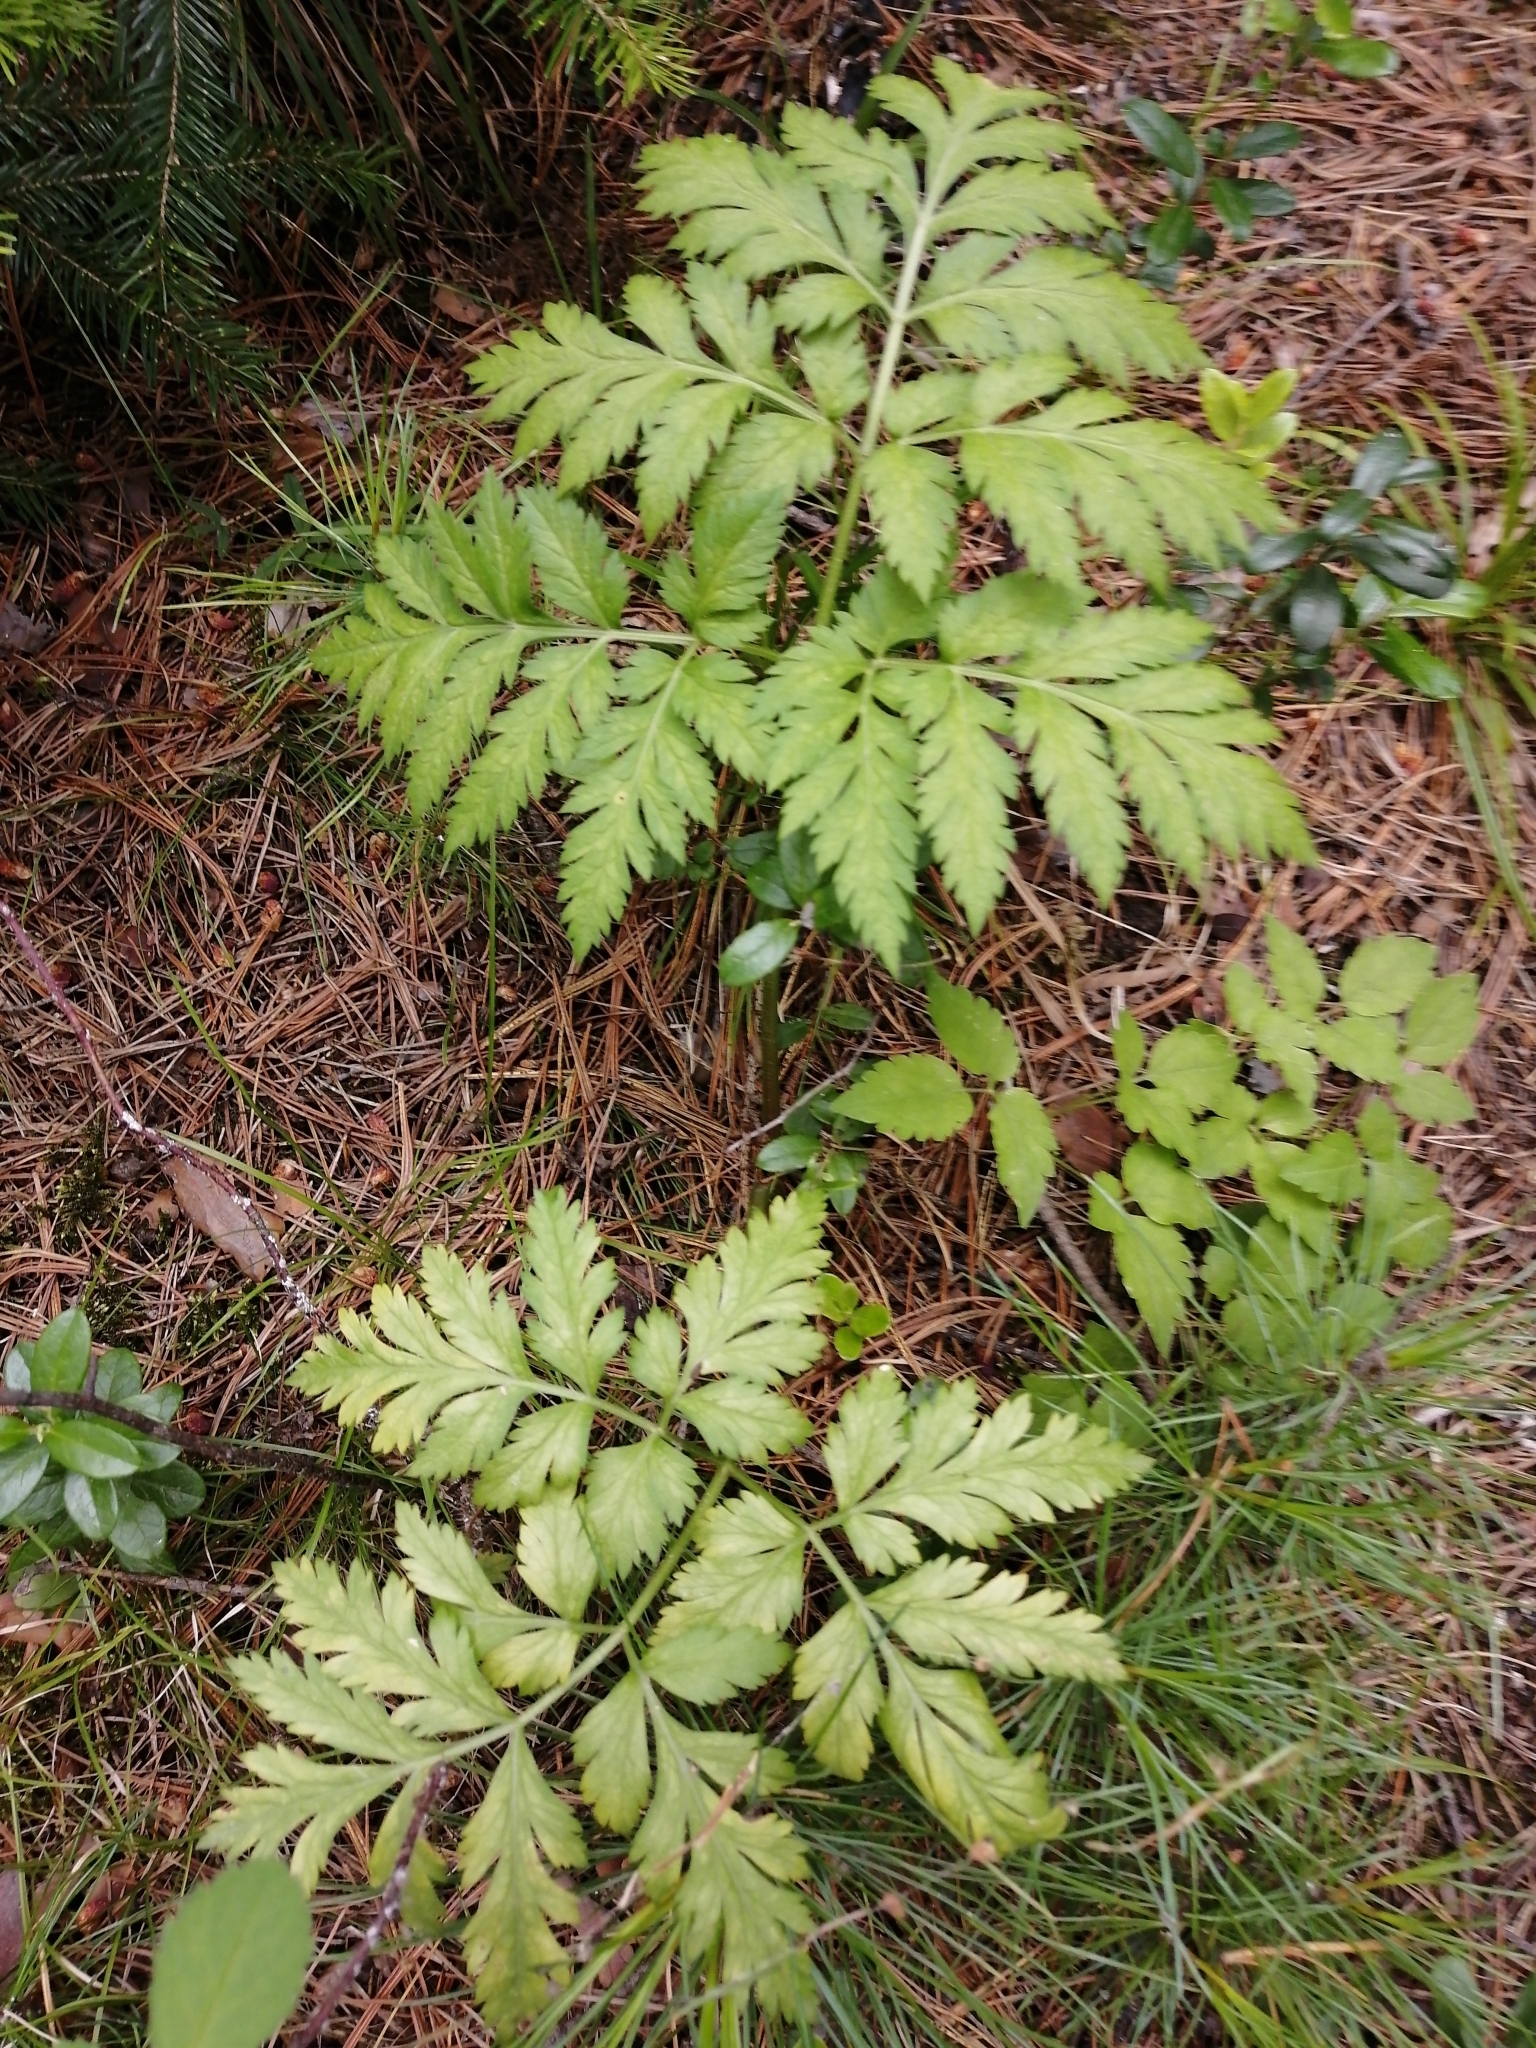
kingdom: Plantae
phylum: Tracheophyta
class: Magnoliopsida
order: Apiales
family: Apiaceae
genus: Pleurospermum
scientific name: Pleurospermum uralense
